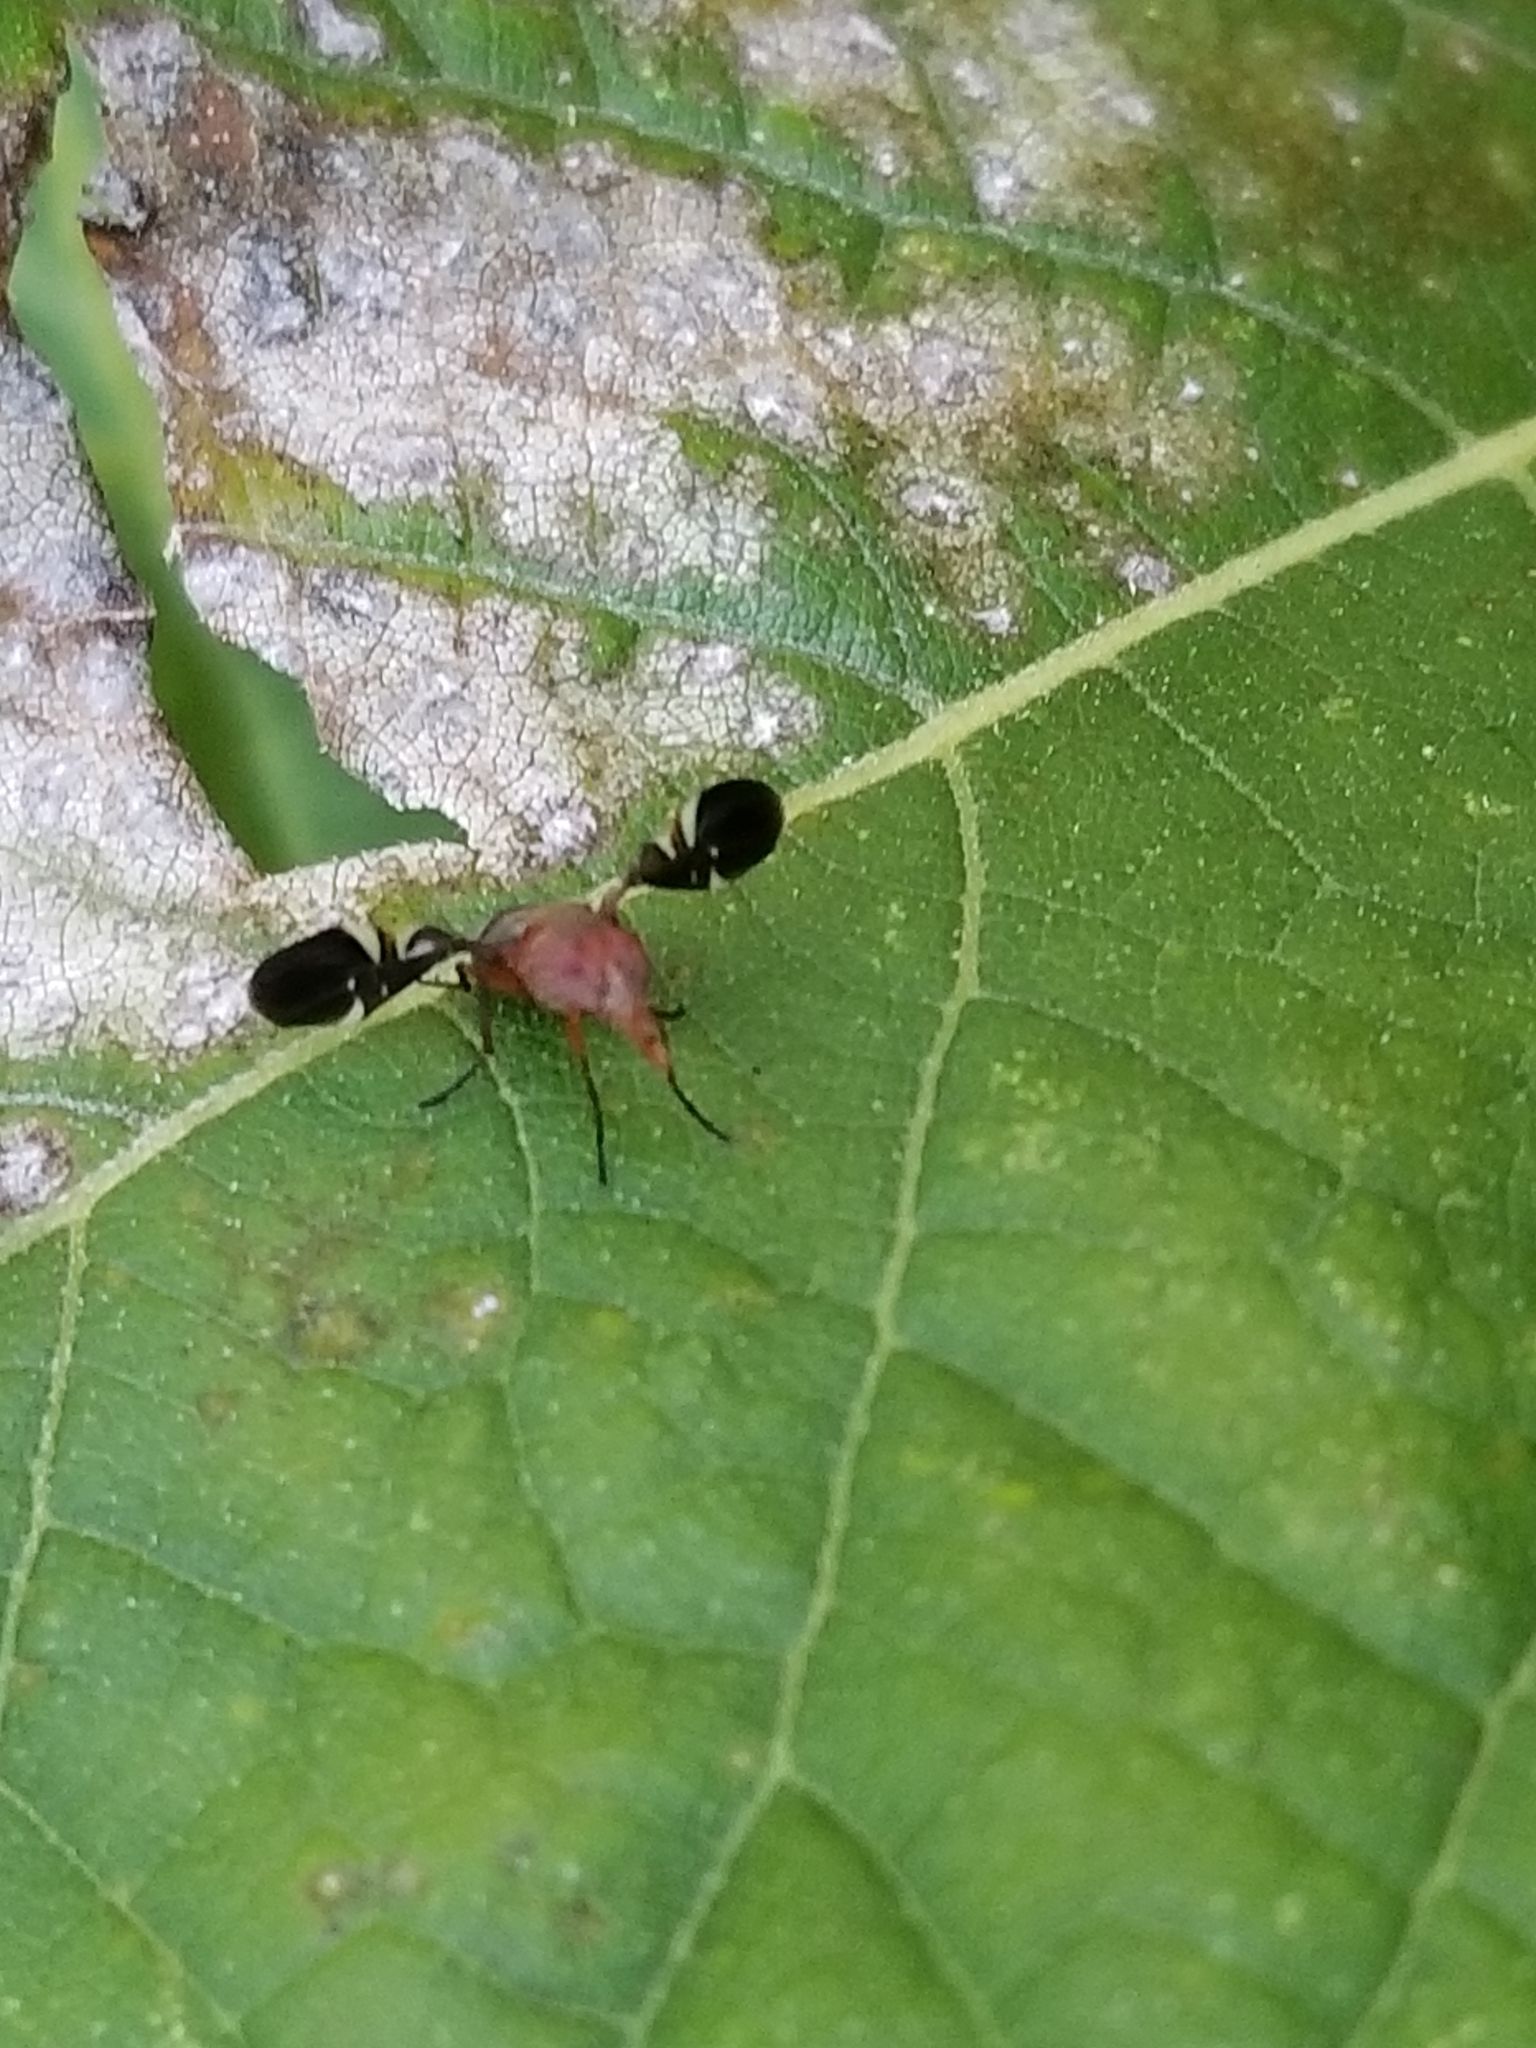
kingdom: Animalia
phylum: Arthropoda
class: Insecta
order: Diptera
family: Ulidiidae
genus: Delphinia
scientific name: Delphinia picta
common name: Common picture-winged fly
